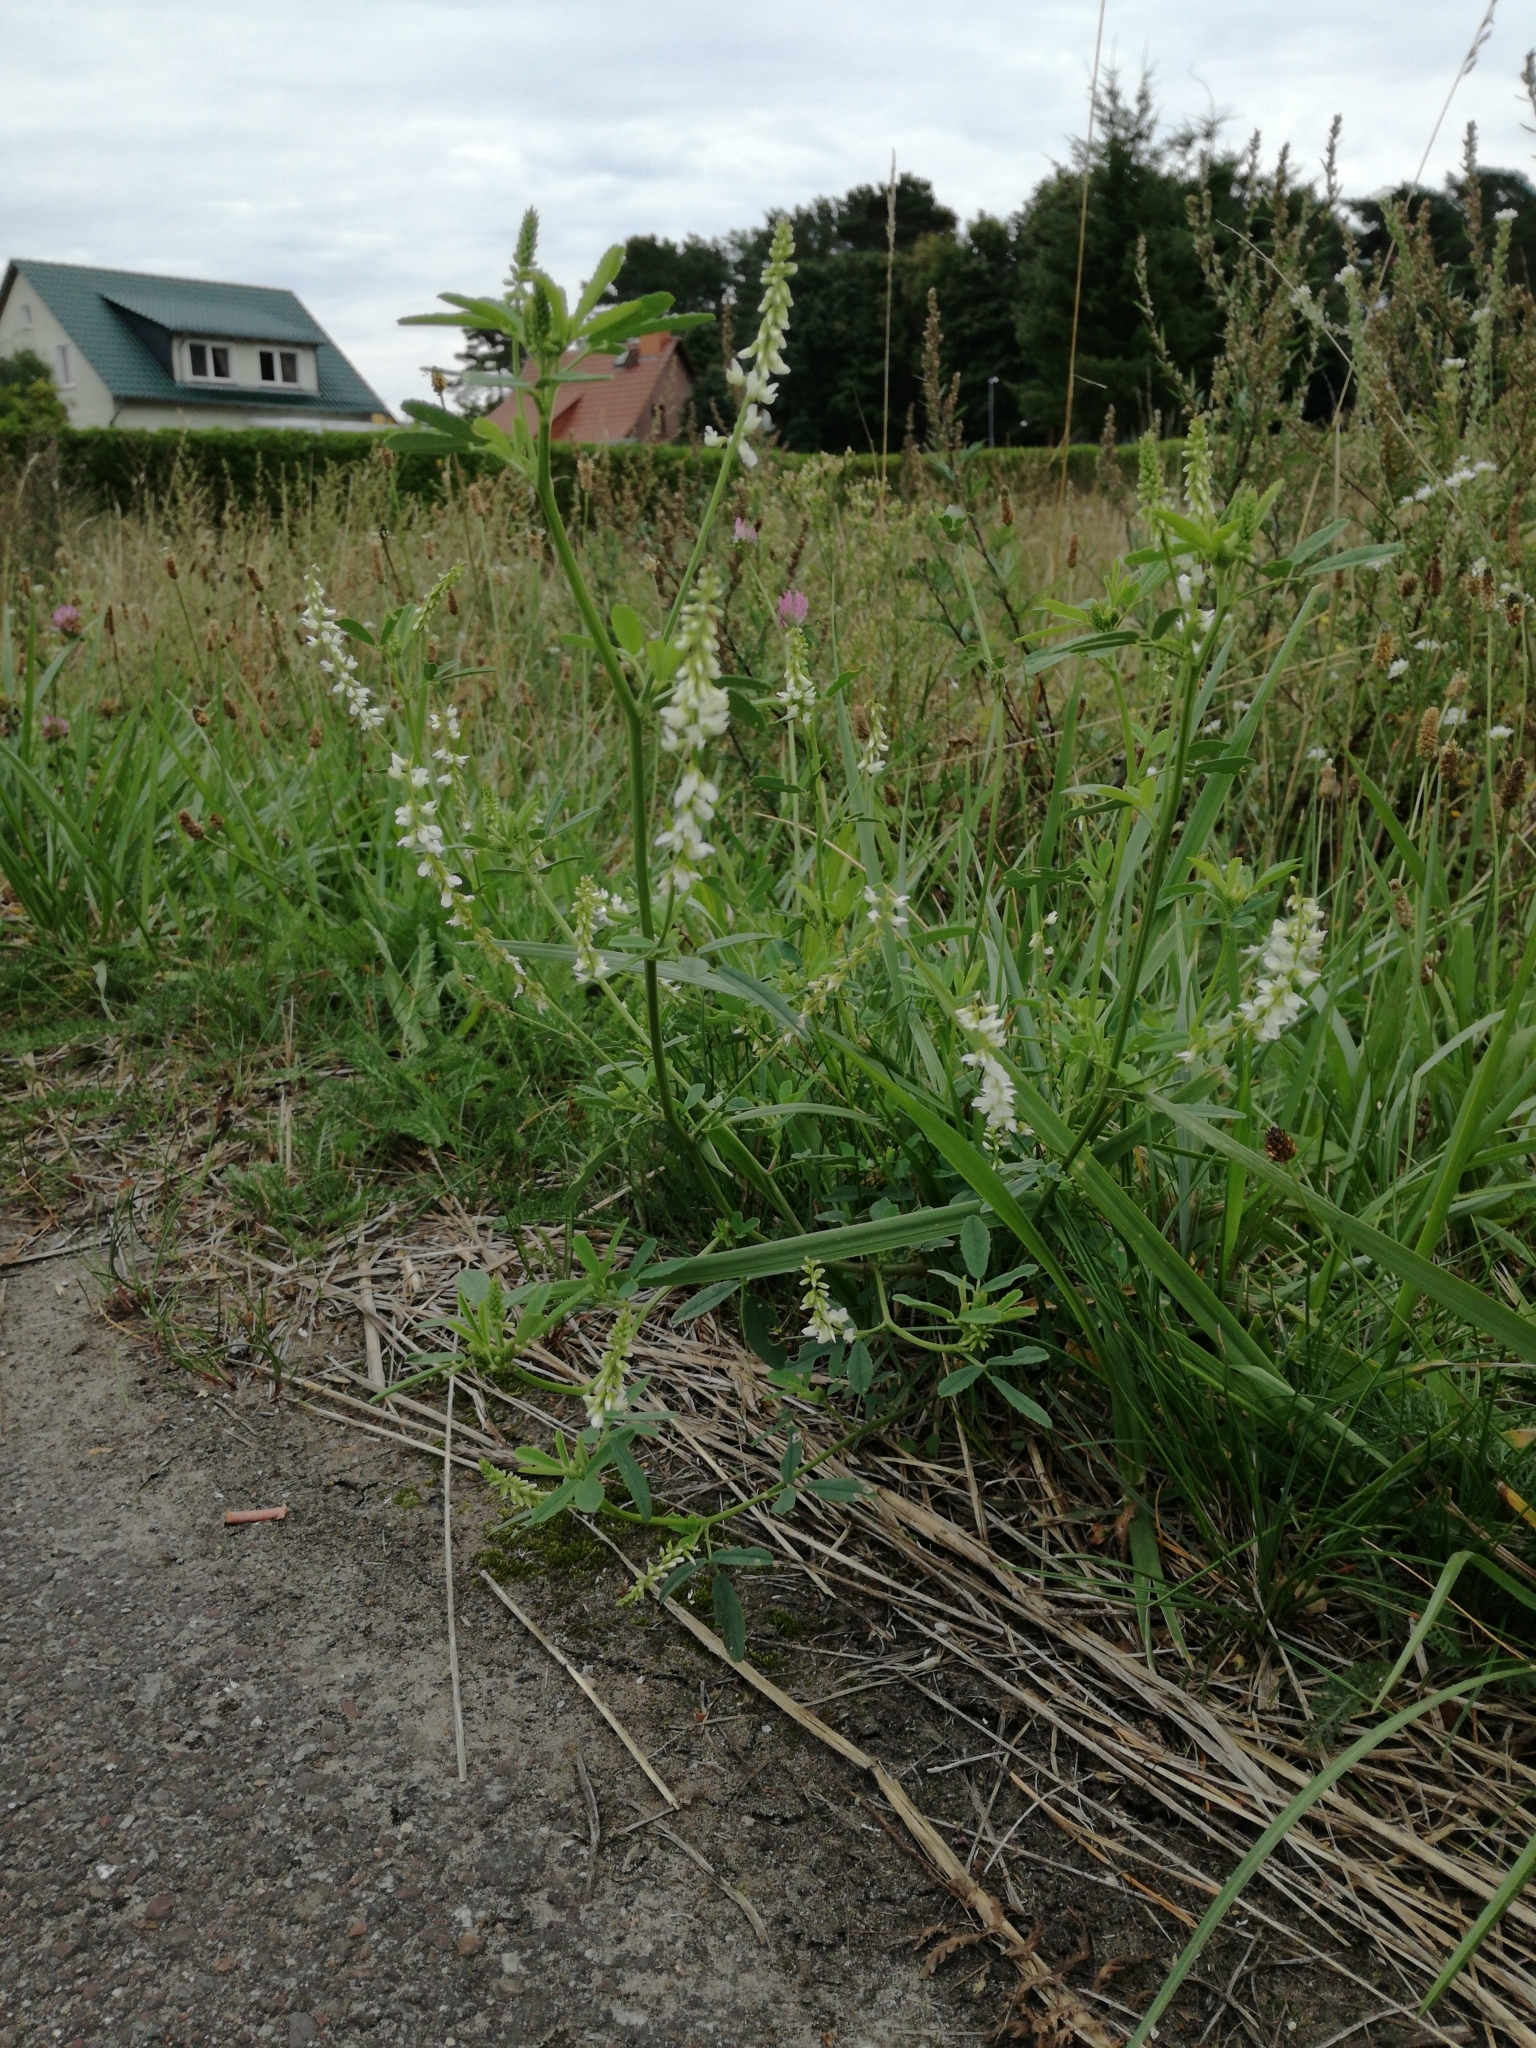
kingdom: Plantae
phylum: Tracheophyta
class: Magnoliopsida
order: Fabales
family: Fabaceae
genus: Melilotus
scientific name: Melilotus albus
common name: White melilot
